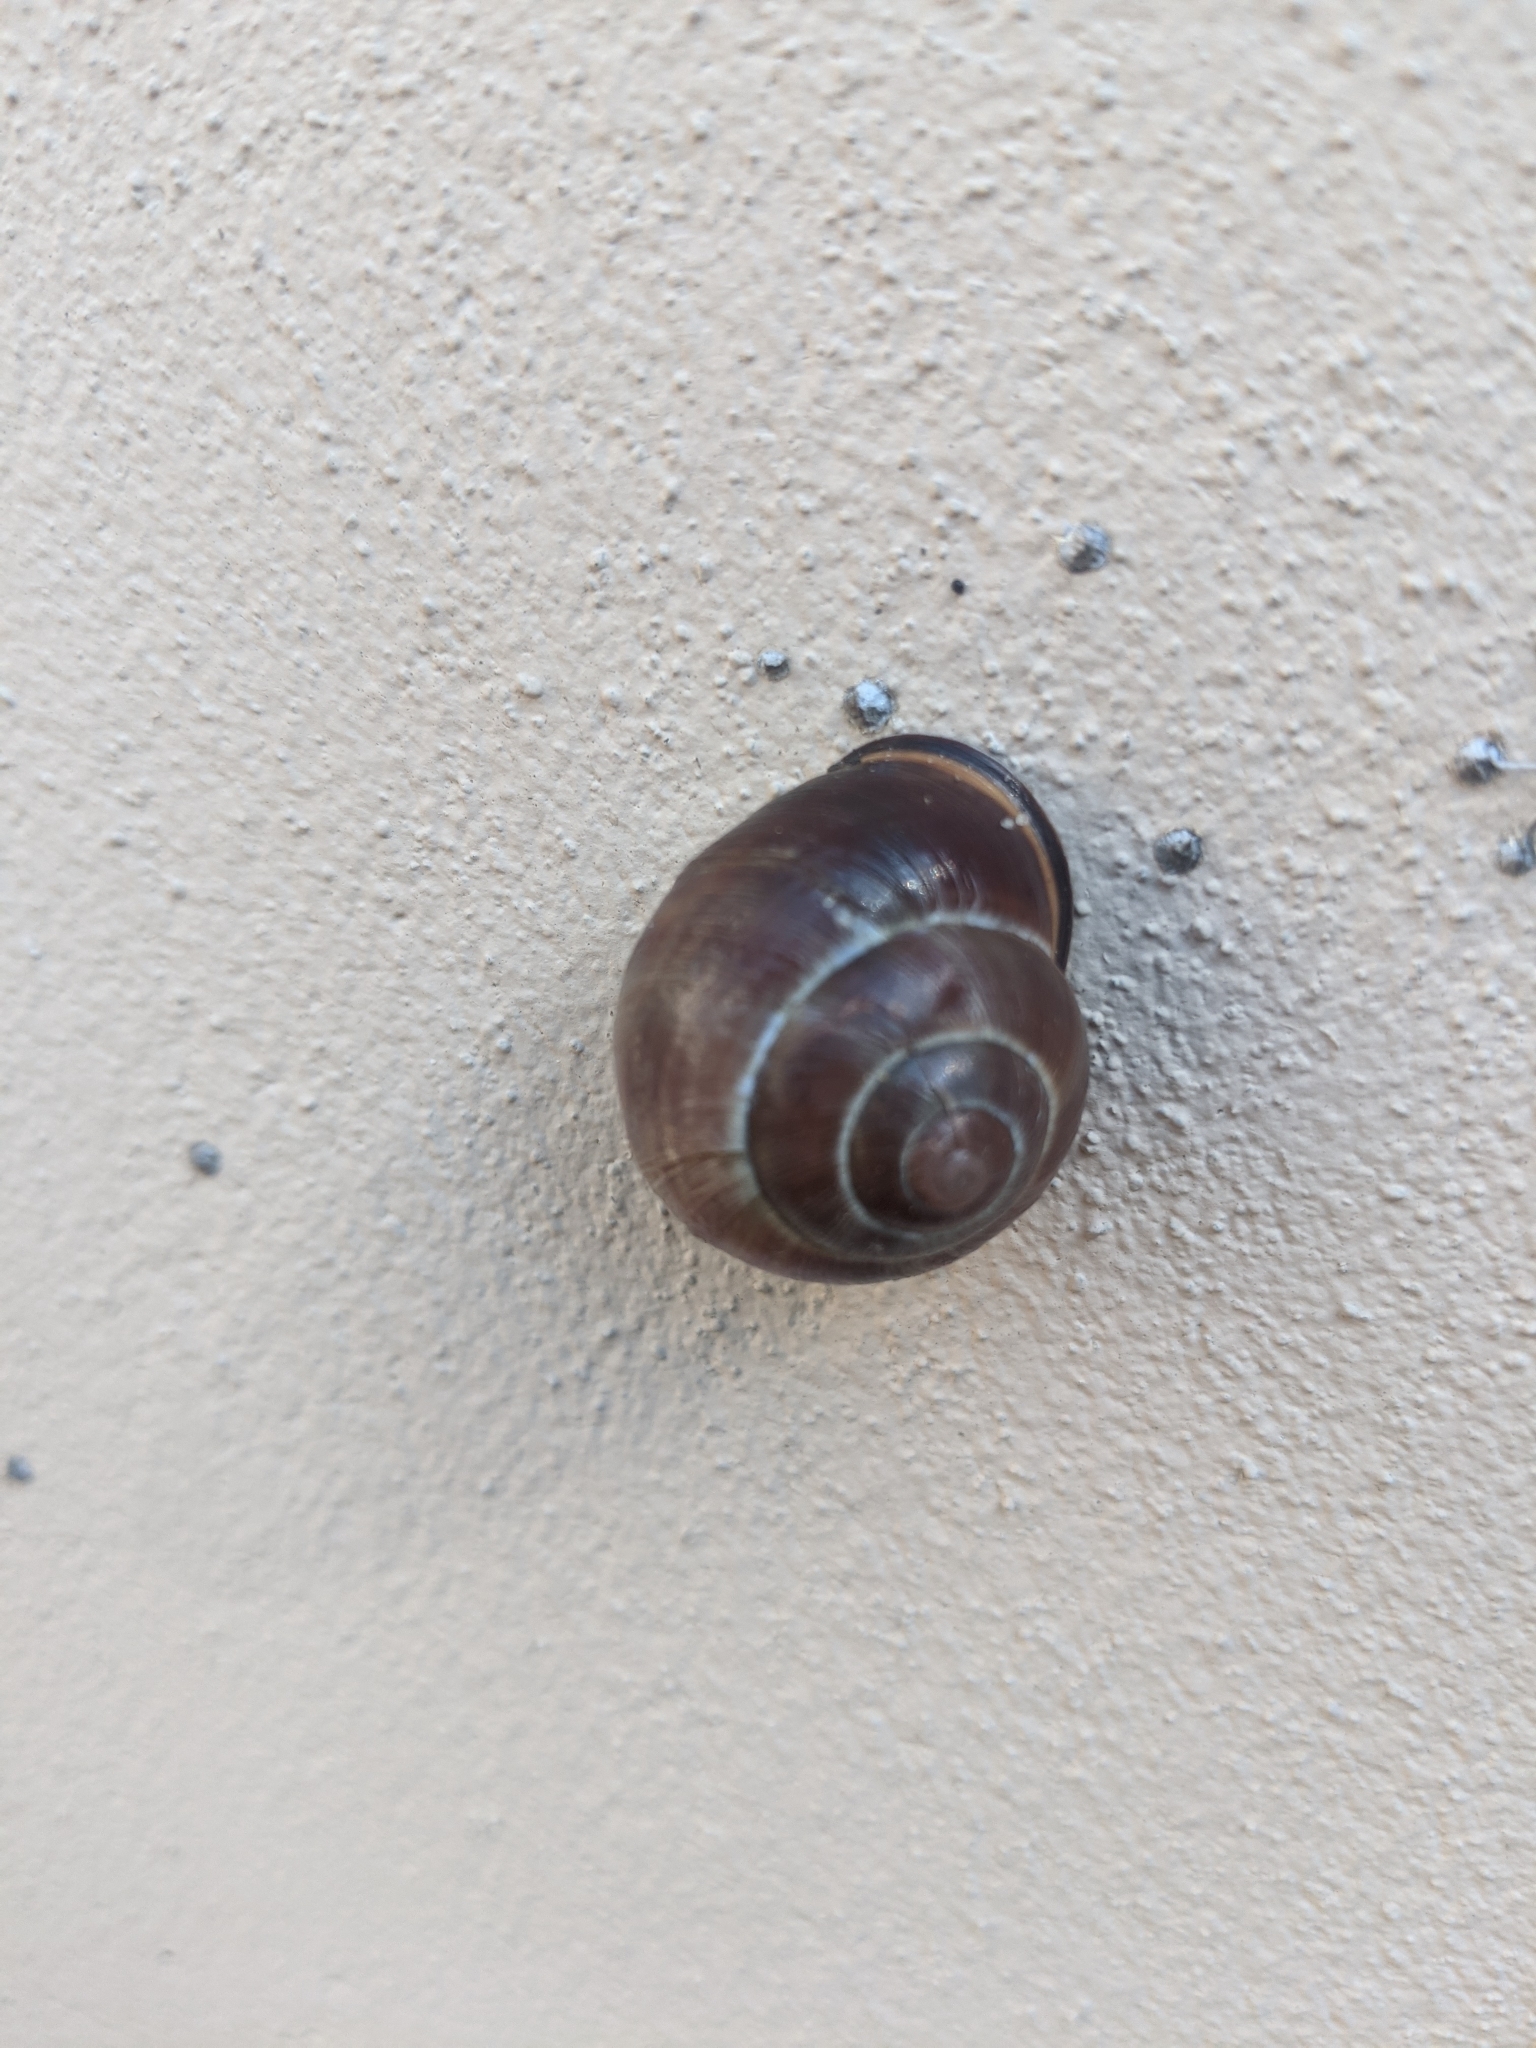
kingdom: Animalia
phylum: Mollusca
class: Gastropoda
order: Stylommatophora
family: Helicidae
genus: Cepaea
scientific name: Cepaea nemoralis
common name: Grovesnail
